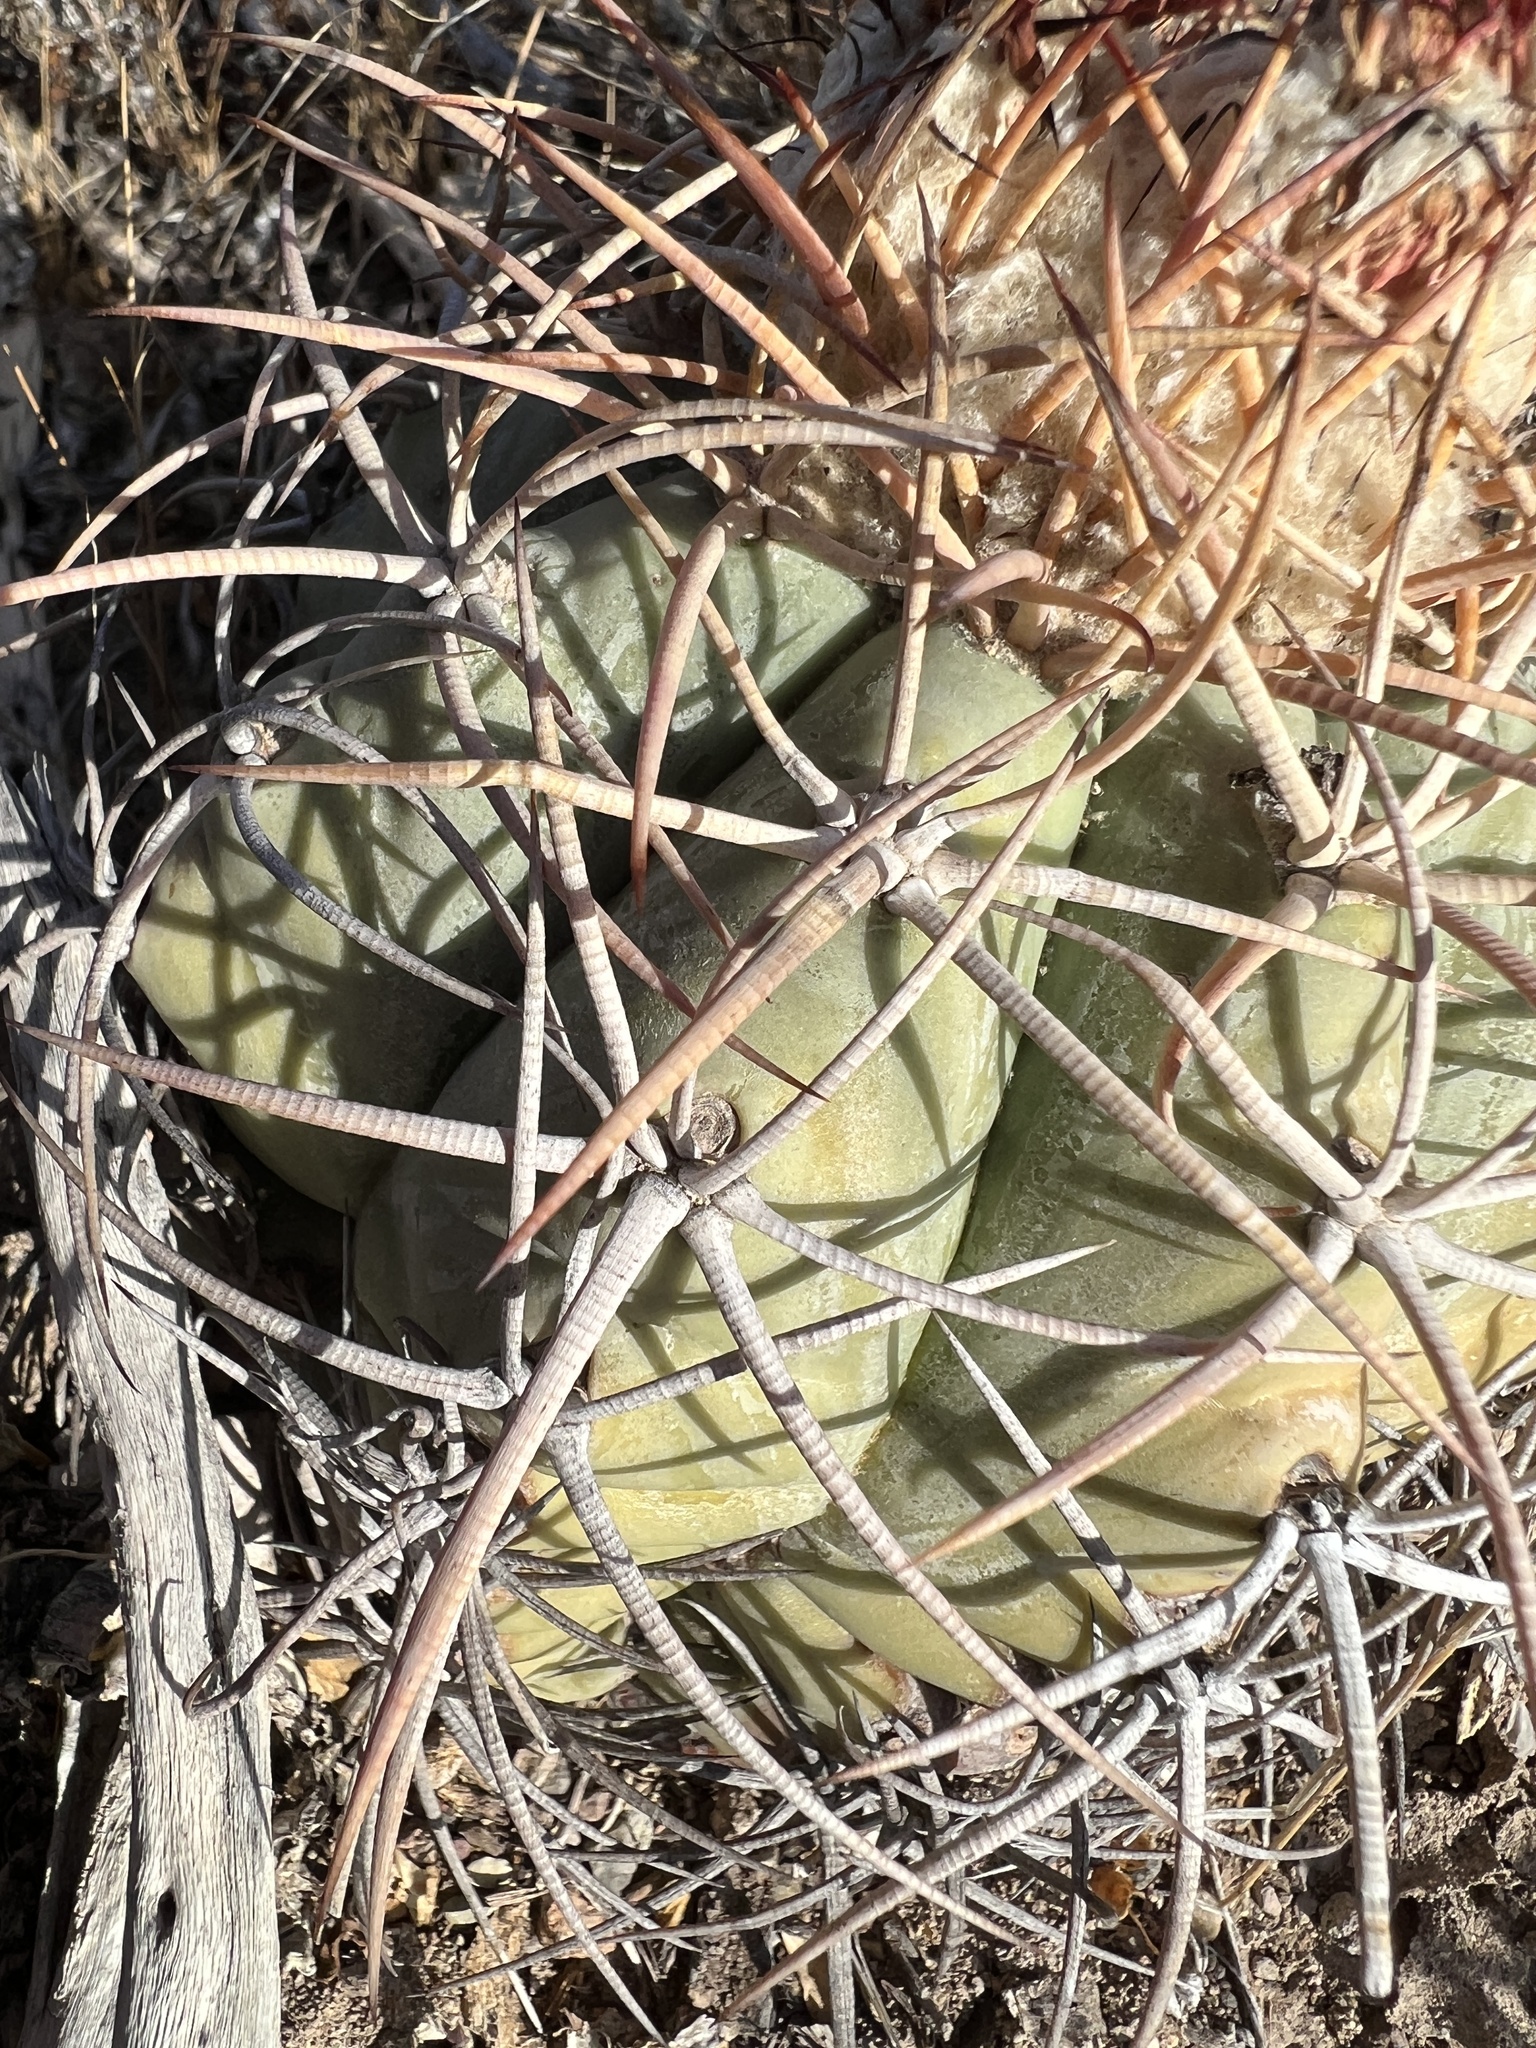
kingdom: Plantae
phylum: Tracheophyta
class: Magnoliopsida
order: Caryophyllales
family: Cactaceae
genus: Echinocactus
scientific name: Echinocactus horizonthalonius
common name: Devilshead
